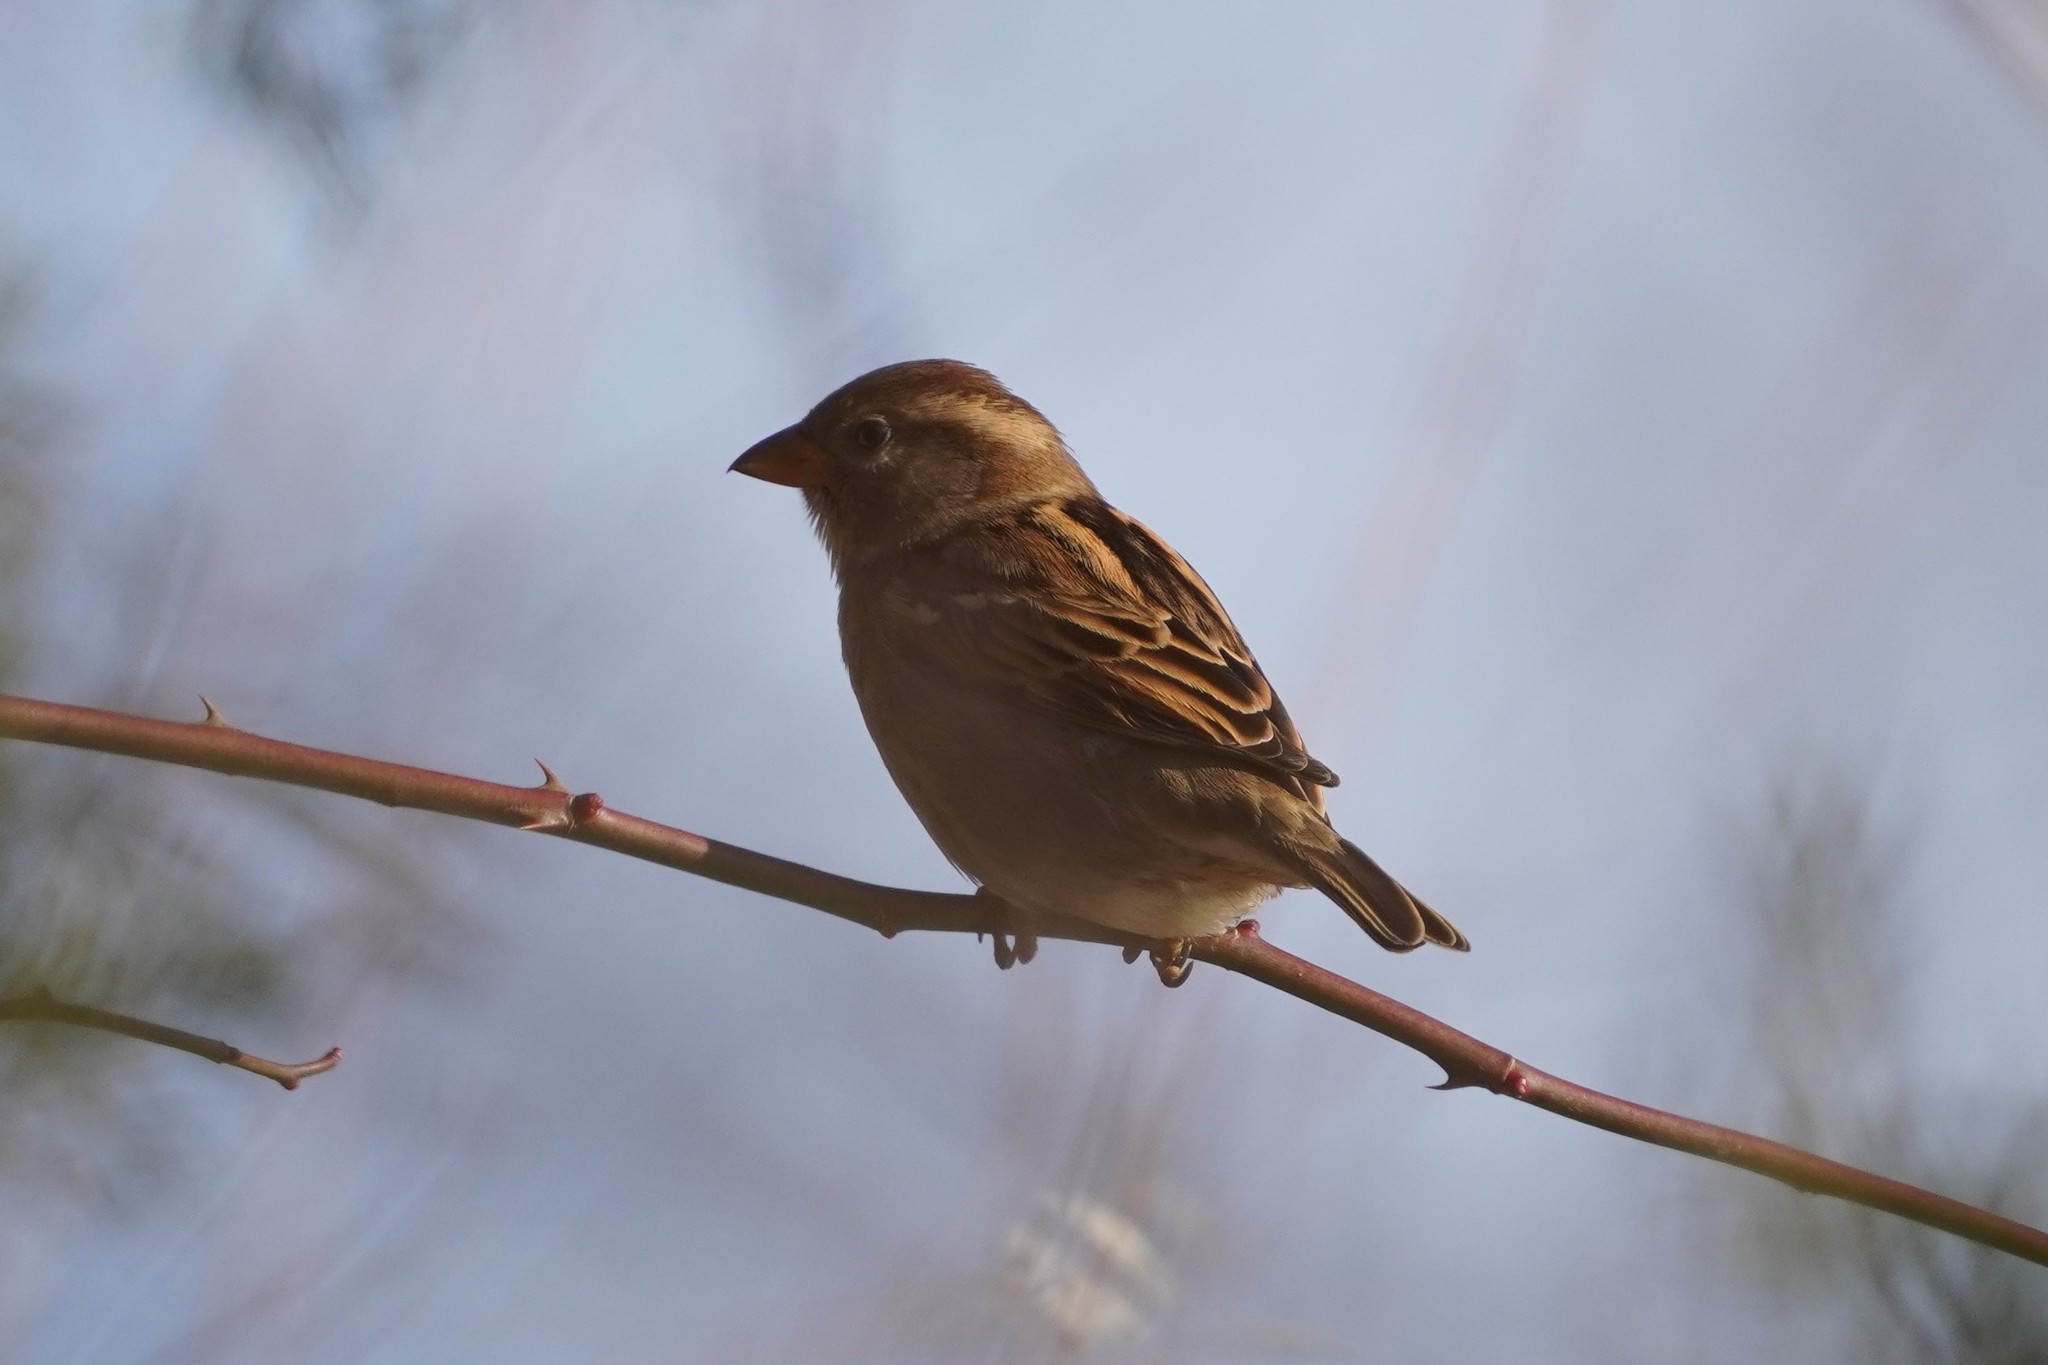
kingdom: Animalia
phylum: Chordata
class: Aves
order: Passeriformes
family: Passeridae
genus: Passer
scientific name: Passer domesticus
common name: House sparrow
